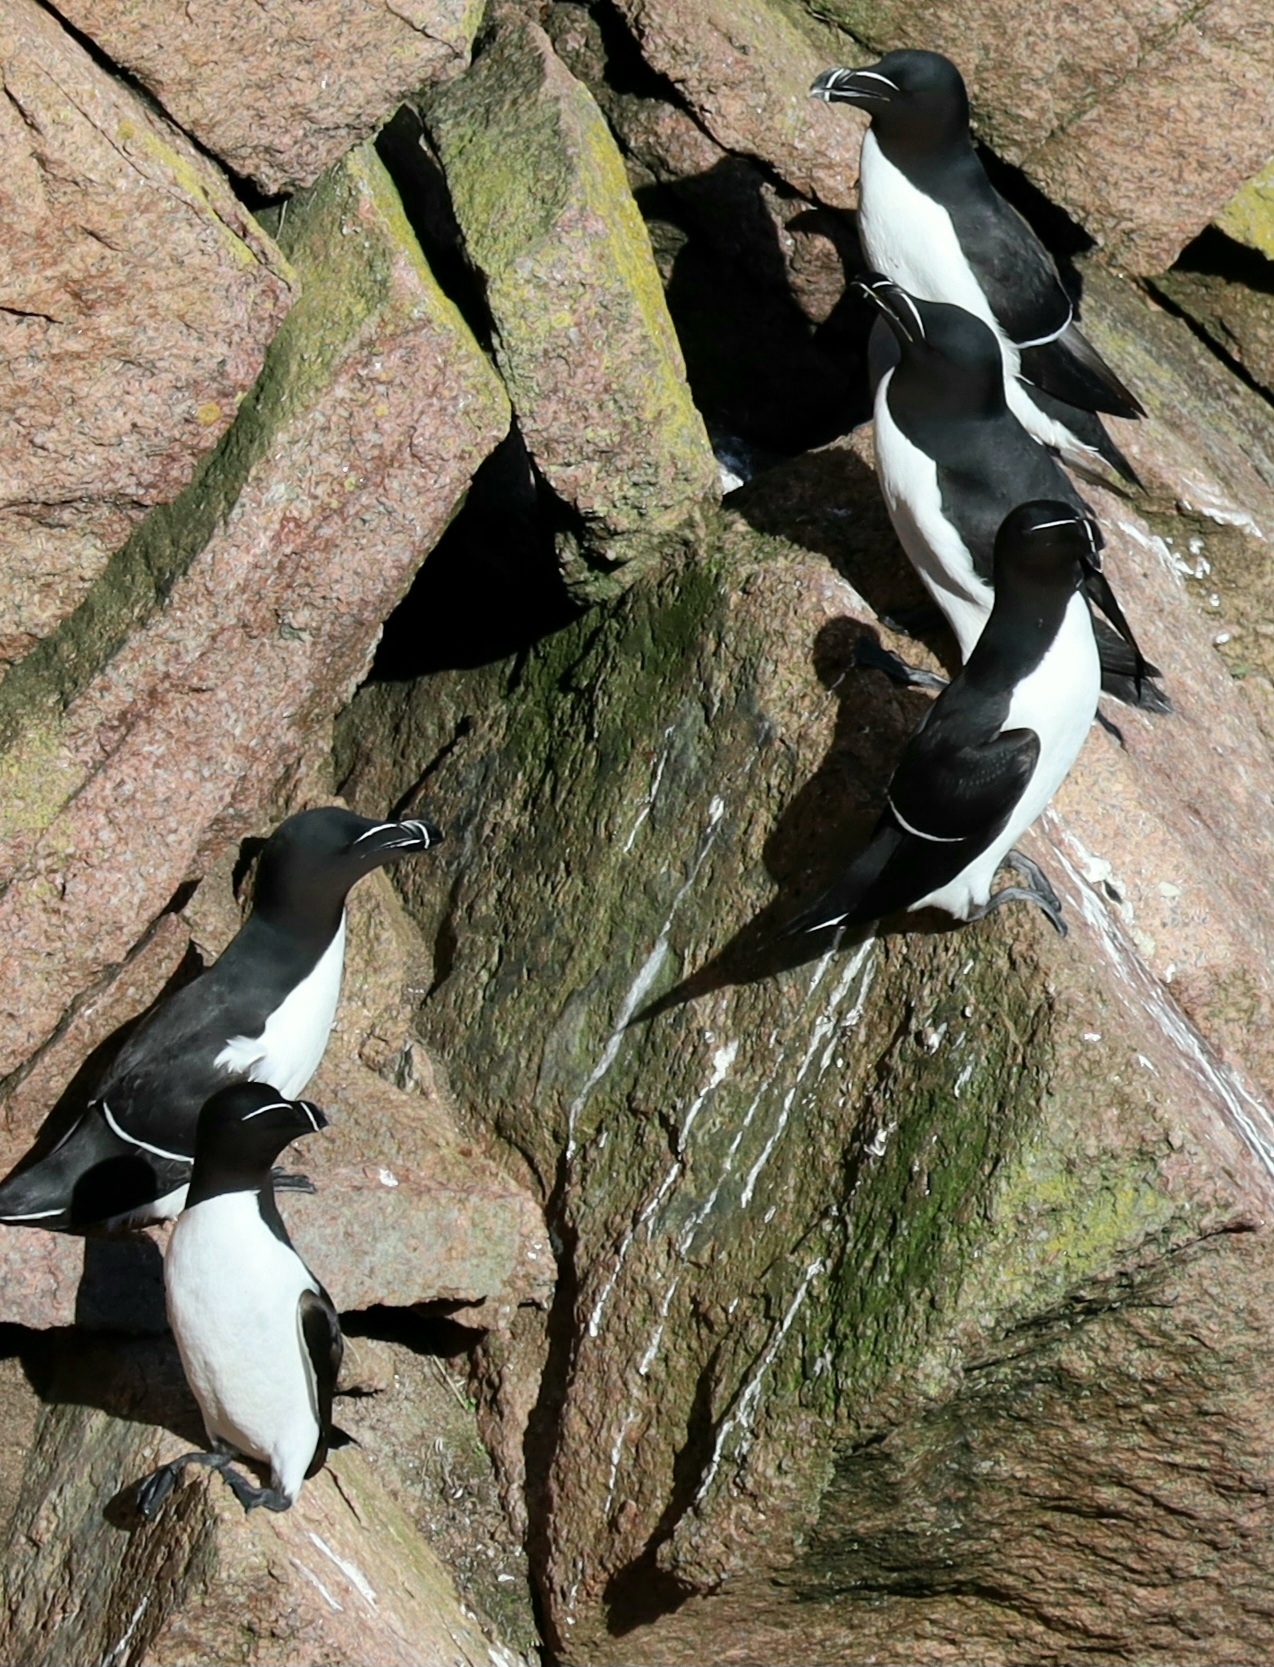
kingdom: Animalia
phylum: Chordata
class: Aves
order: Charadriiformes
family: Alcidae
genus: Alca
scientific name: Alca torda
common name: Razorbill
